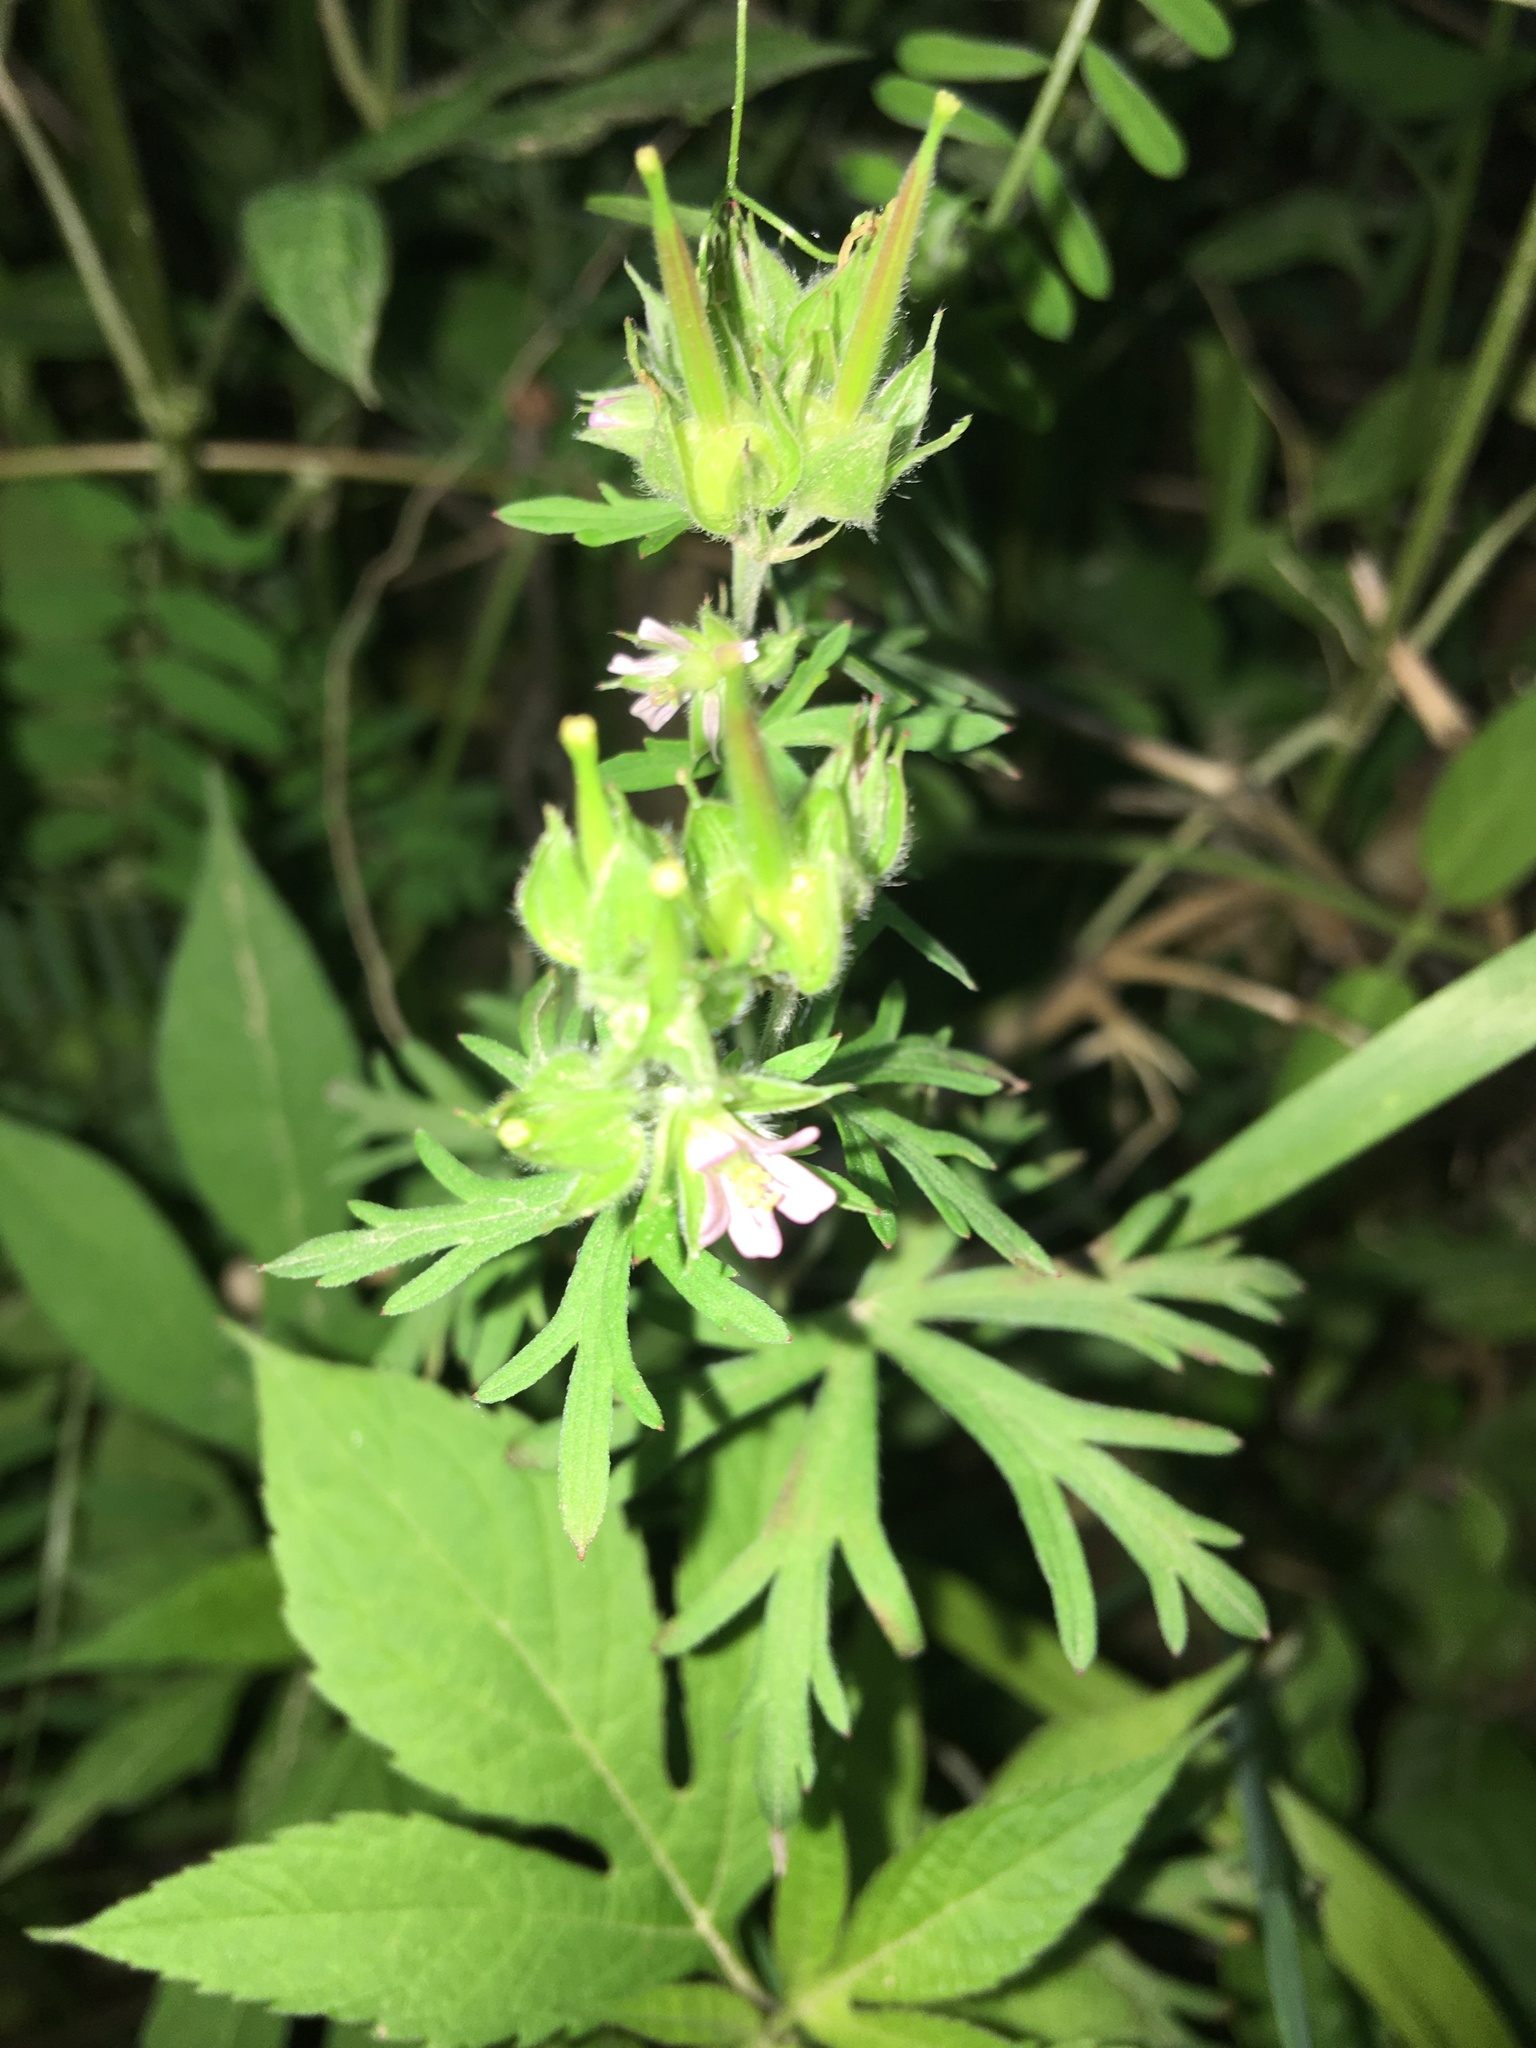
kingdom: Plantae
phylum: Tracheophyta
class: Magnoliopsida
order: Geraniales
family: Geraniaceae
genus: Geranium
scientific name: Geranium carolinianum
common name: Carolina crane's-bill
